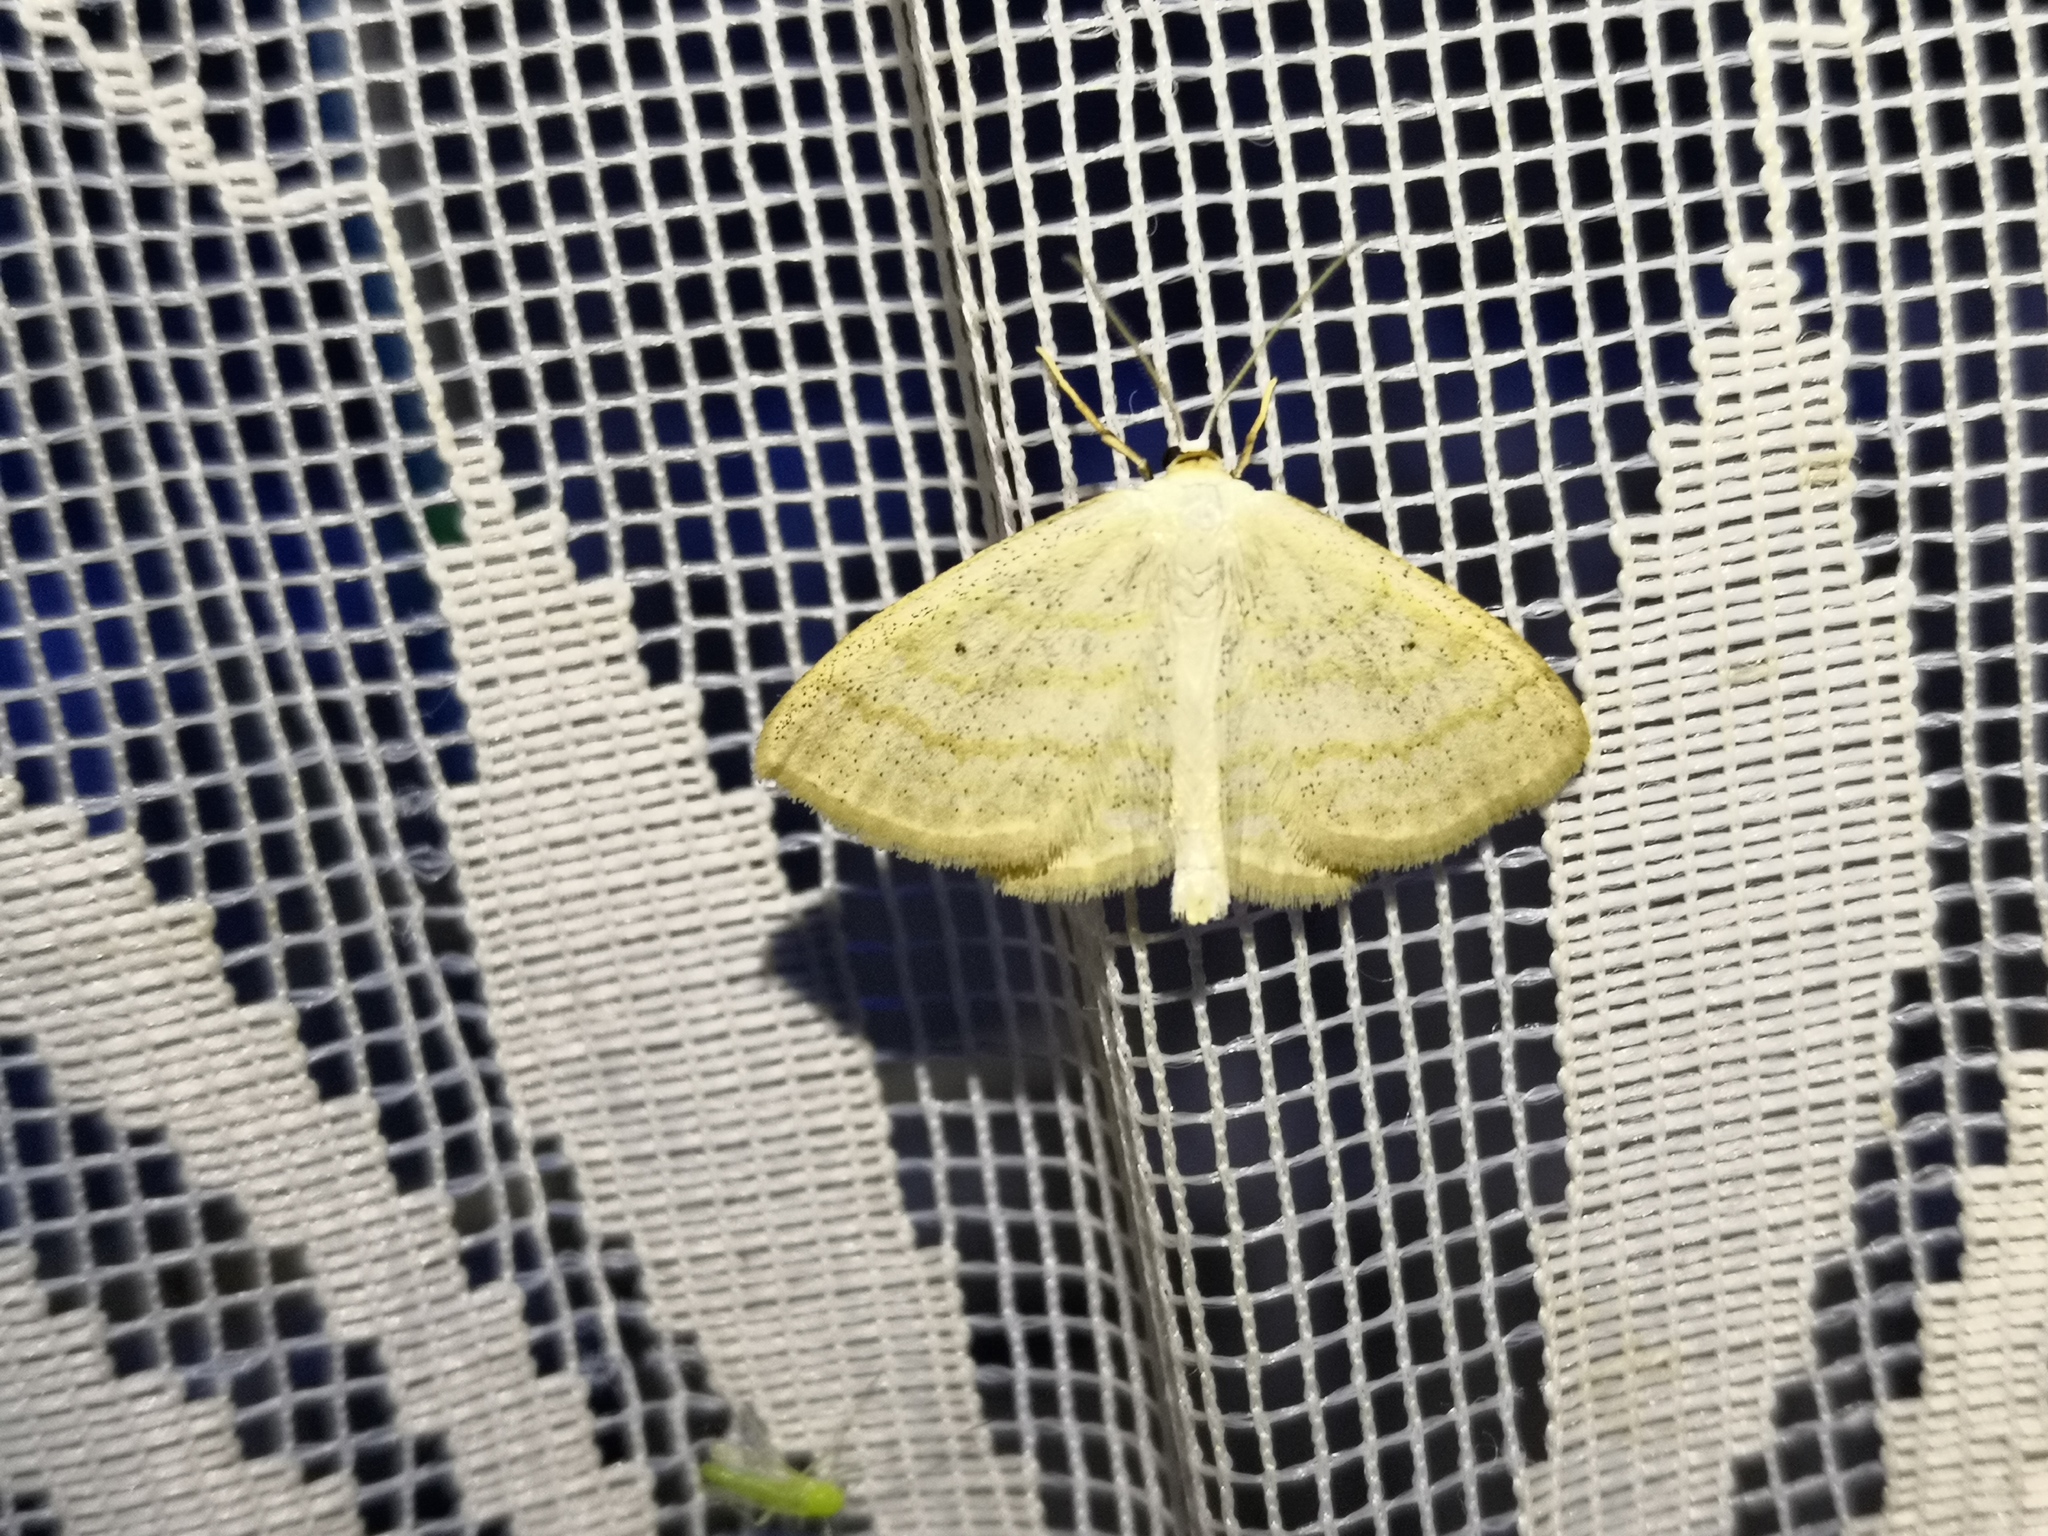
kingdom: Animalia
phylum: Arthropoda
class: Insecta
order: Lepidoptera
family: Geometridae
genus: Scopula
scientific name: Scopula immutata
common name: Lesser cream wave
